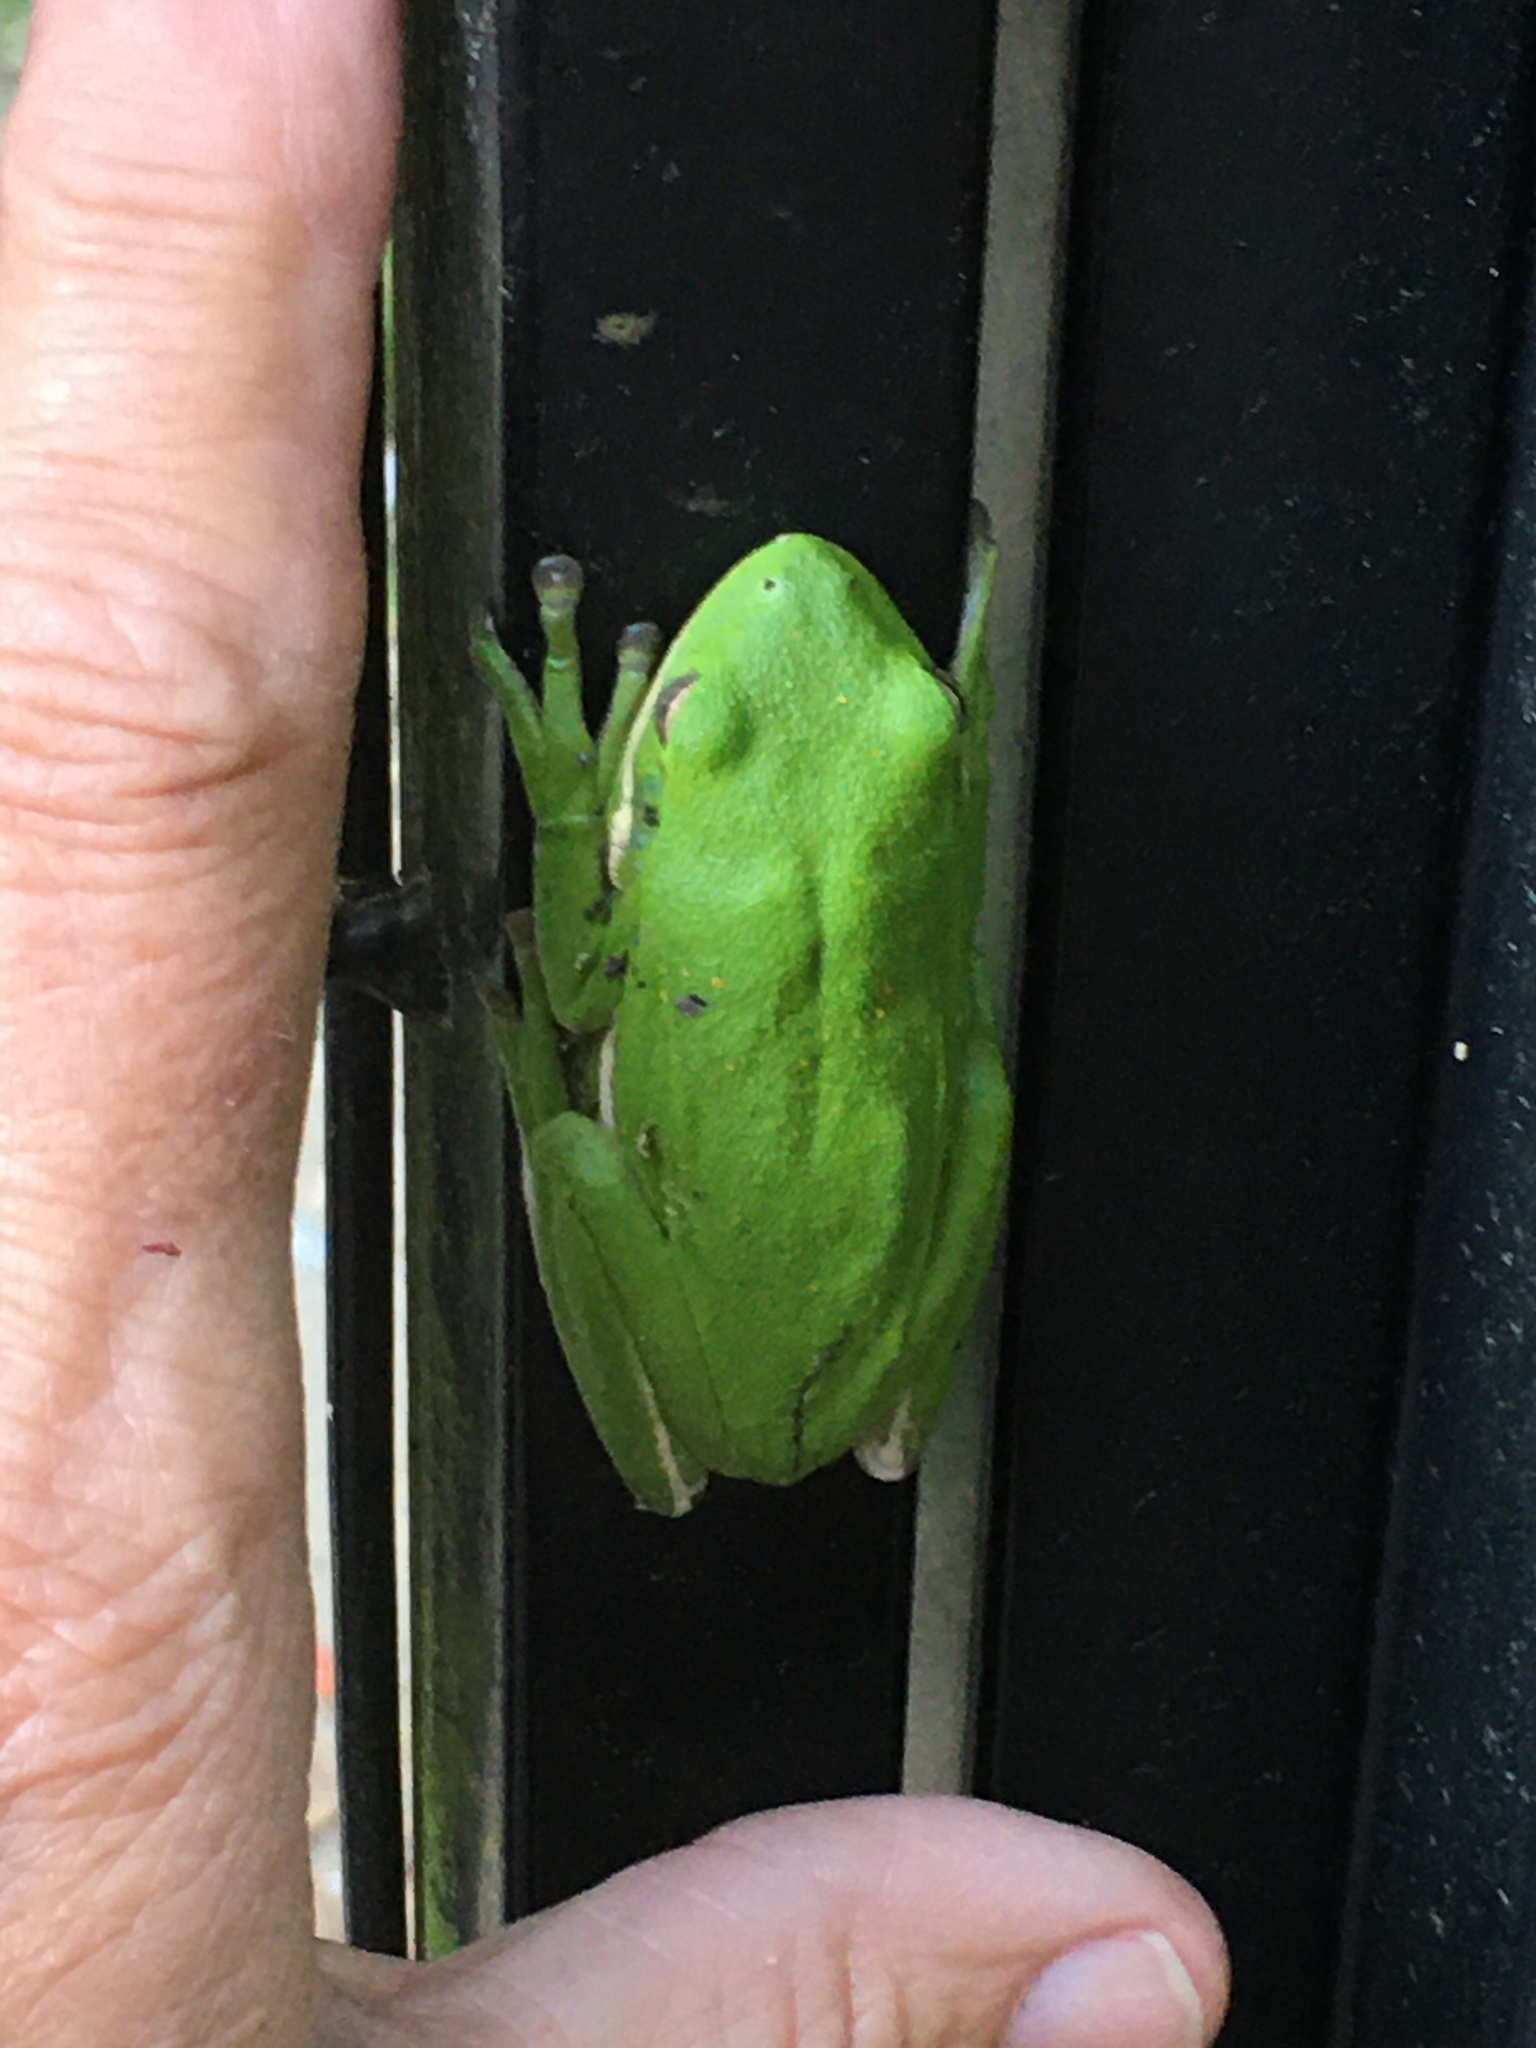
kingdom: Animalia
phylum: Chordata
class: Amphibia
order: Anura
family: Hylidae
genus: Dryophytes
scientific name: Dryophytes cinereus
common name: Green treefrog
